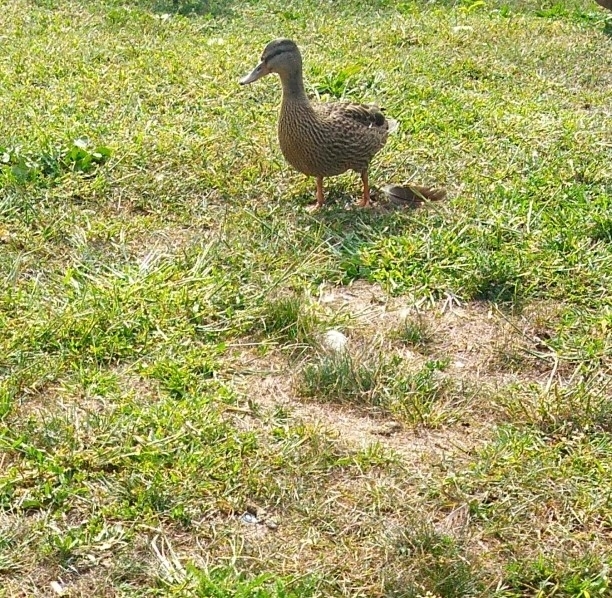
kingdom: Animalia
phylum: Chordata
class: Aves
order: Anseriformes
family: Anatidae
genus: Anas
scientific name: Anas platyrhynchos
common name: Mallard
